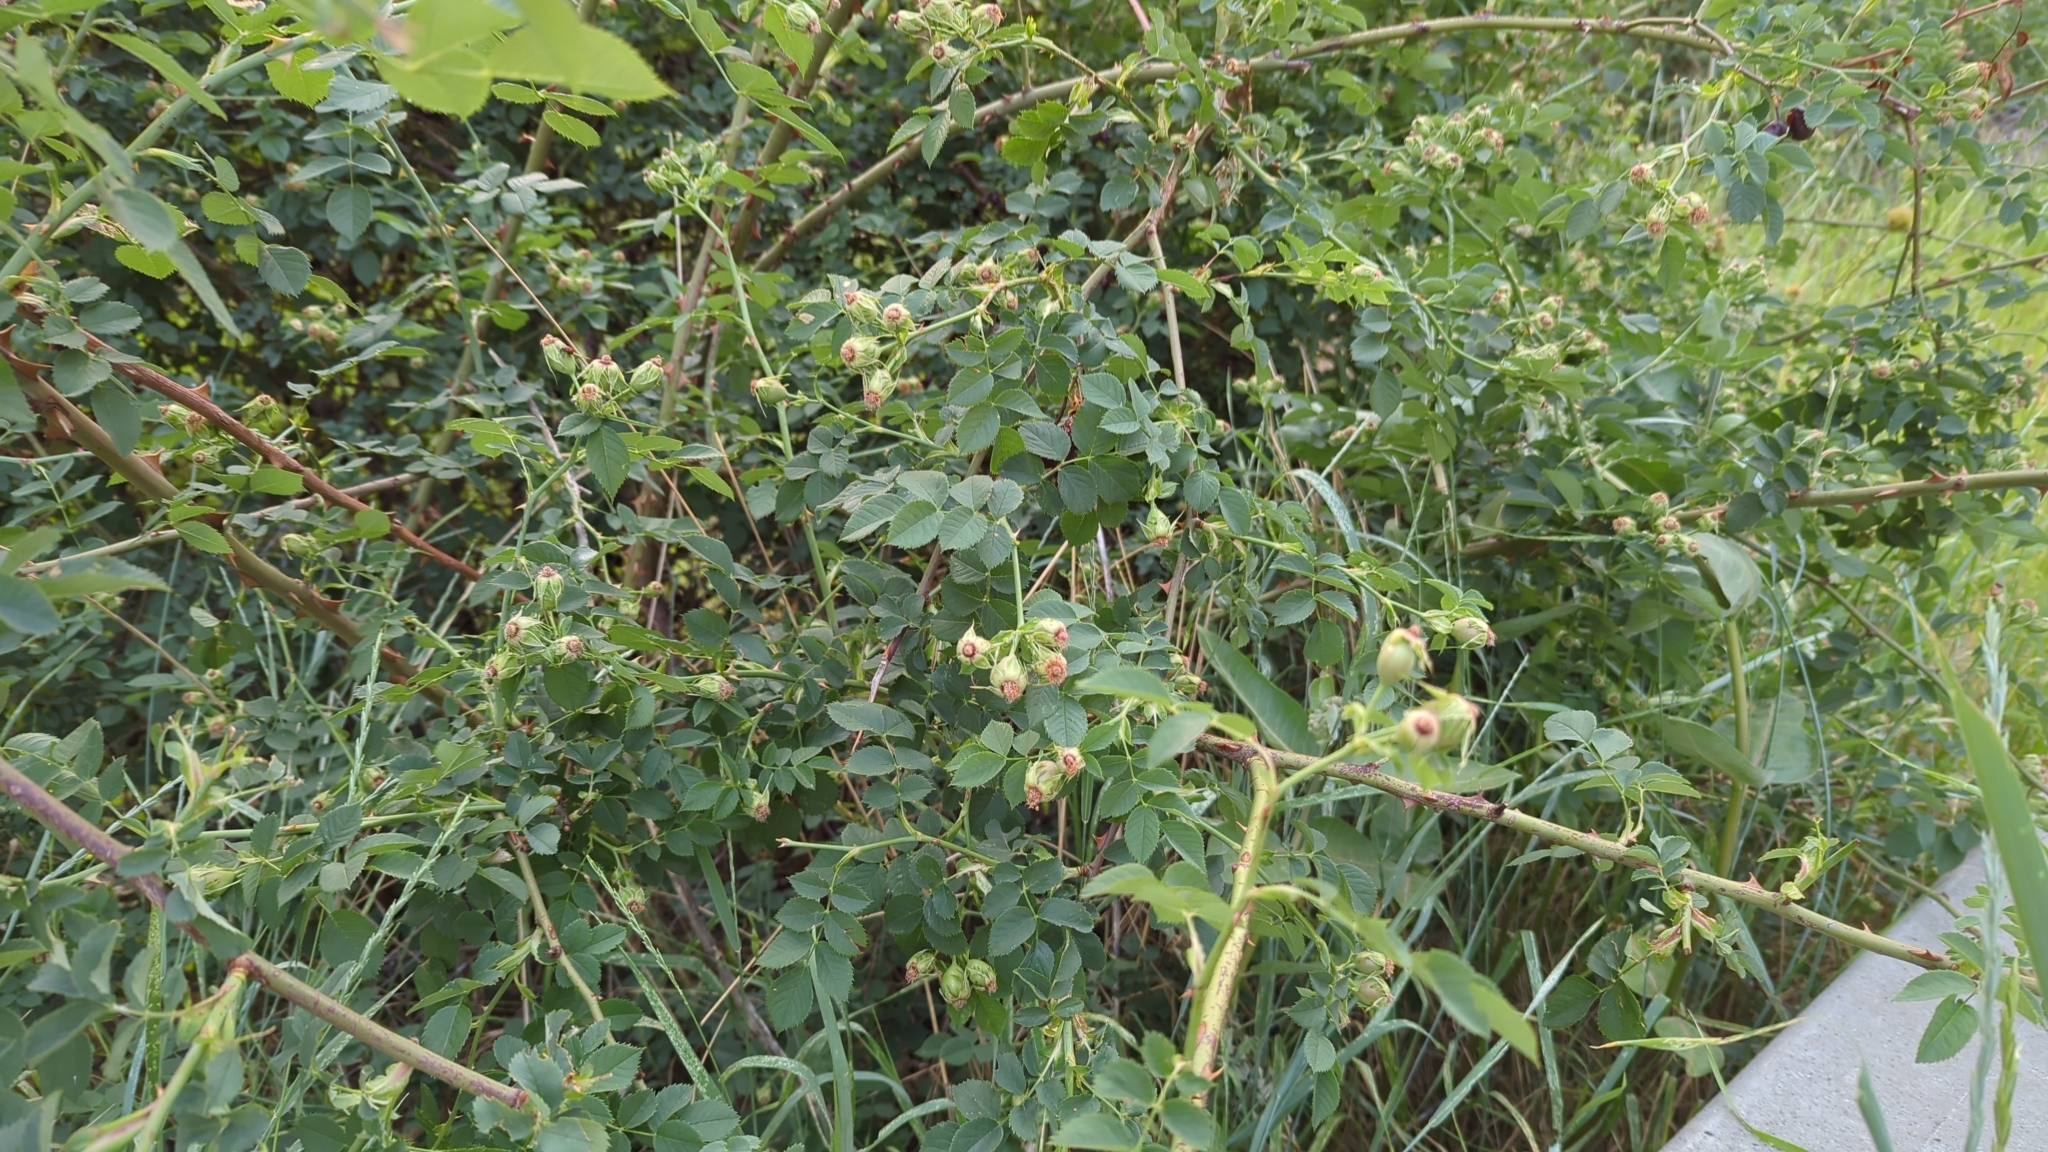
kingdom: Animalia
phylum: Arthropoda
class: Insecta
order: Hymenoptera
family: Cynipidae
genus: Diplolepis
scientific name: Diplolepis rosae
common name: Bedeguar gall
